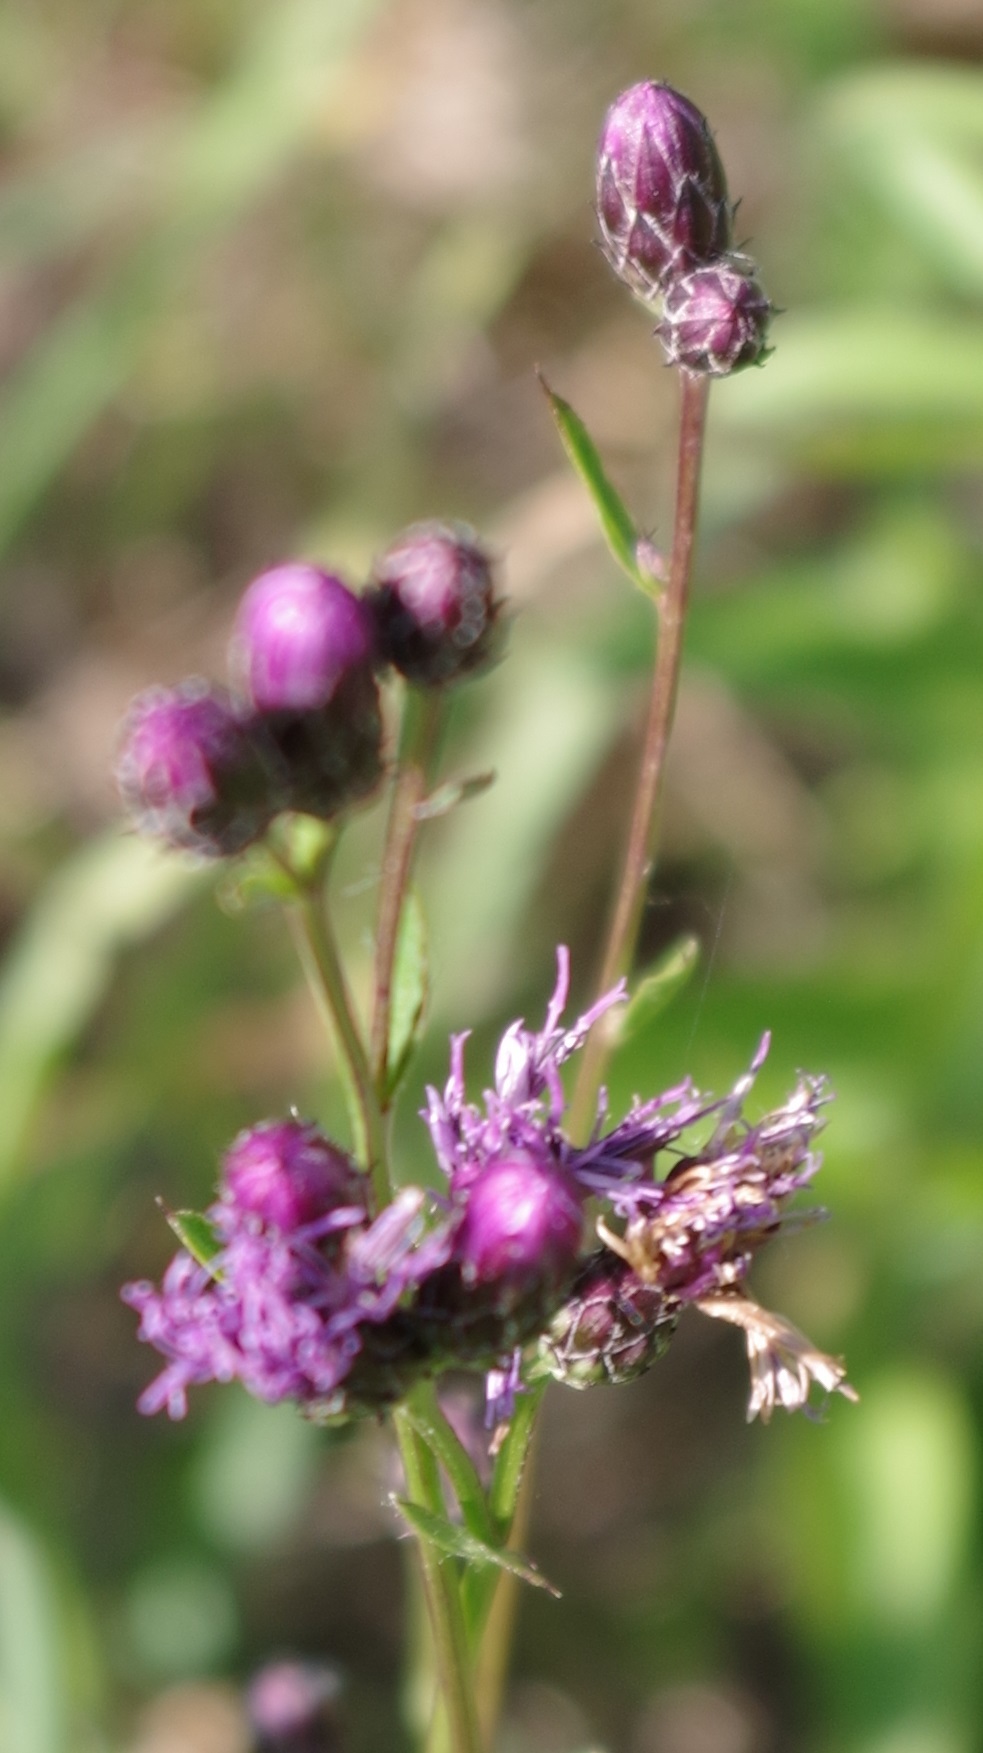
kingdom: Plantae
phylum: Tracheophyta
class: Magnoliopsida
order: Asterales
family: Asteraceae
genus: Serratula
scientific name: Serratula tinctoria
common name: Saw-wort
